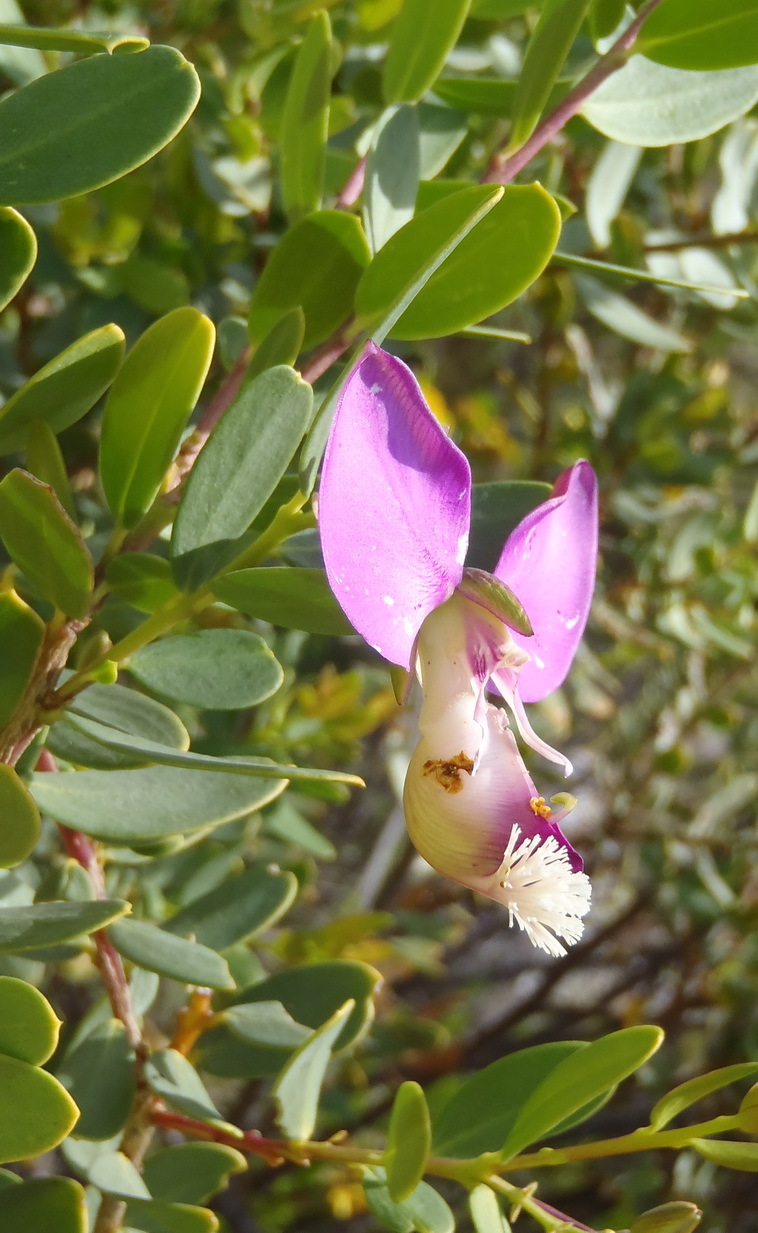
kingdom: Plantae
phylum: Tracheophyta
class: Magnoliopsida
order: Fabales
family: Polygalaceae
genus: Polygala
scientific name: Polygala myrtifolia
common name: Myrtle-leaf milkwort
